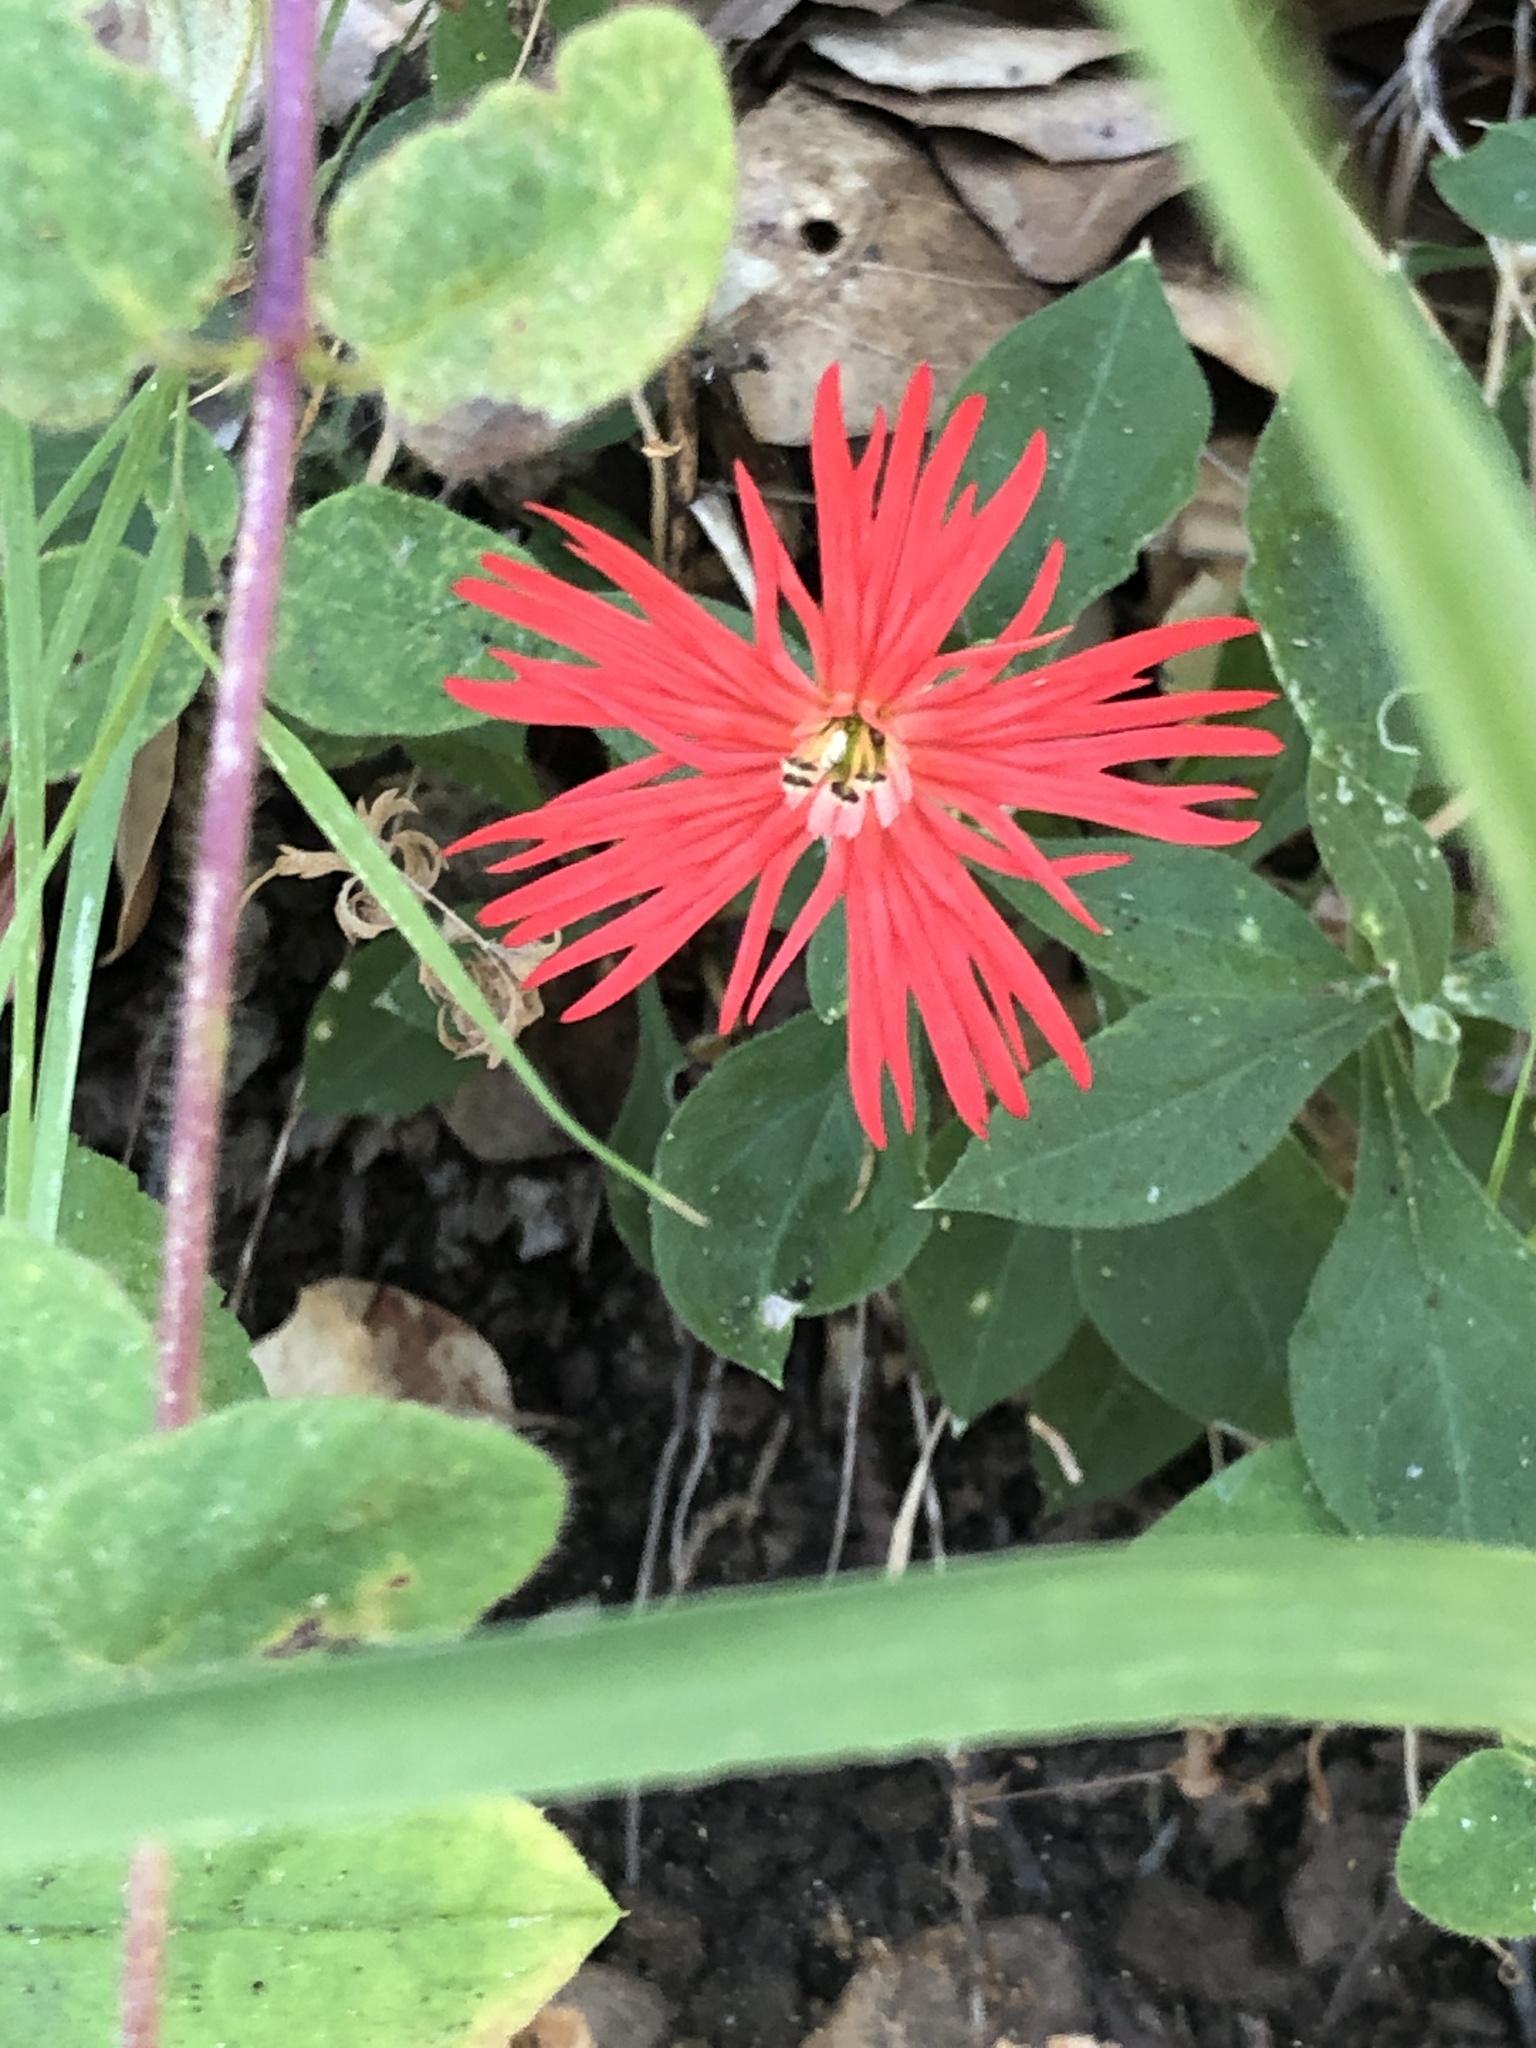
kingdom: Plantae
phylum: Tracheophyta
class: Magnoliopsida
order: Caryophyllales
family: Caryophyllaceae
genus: Silene
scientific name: Silene laciniata
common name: Indian-pink
